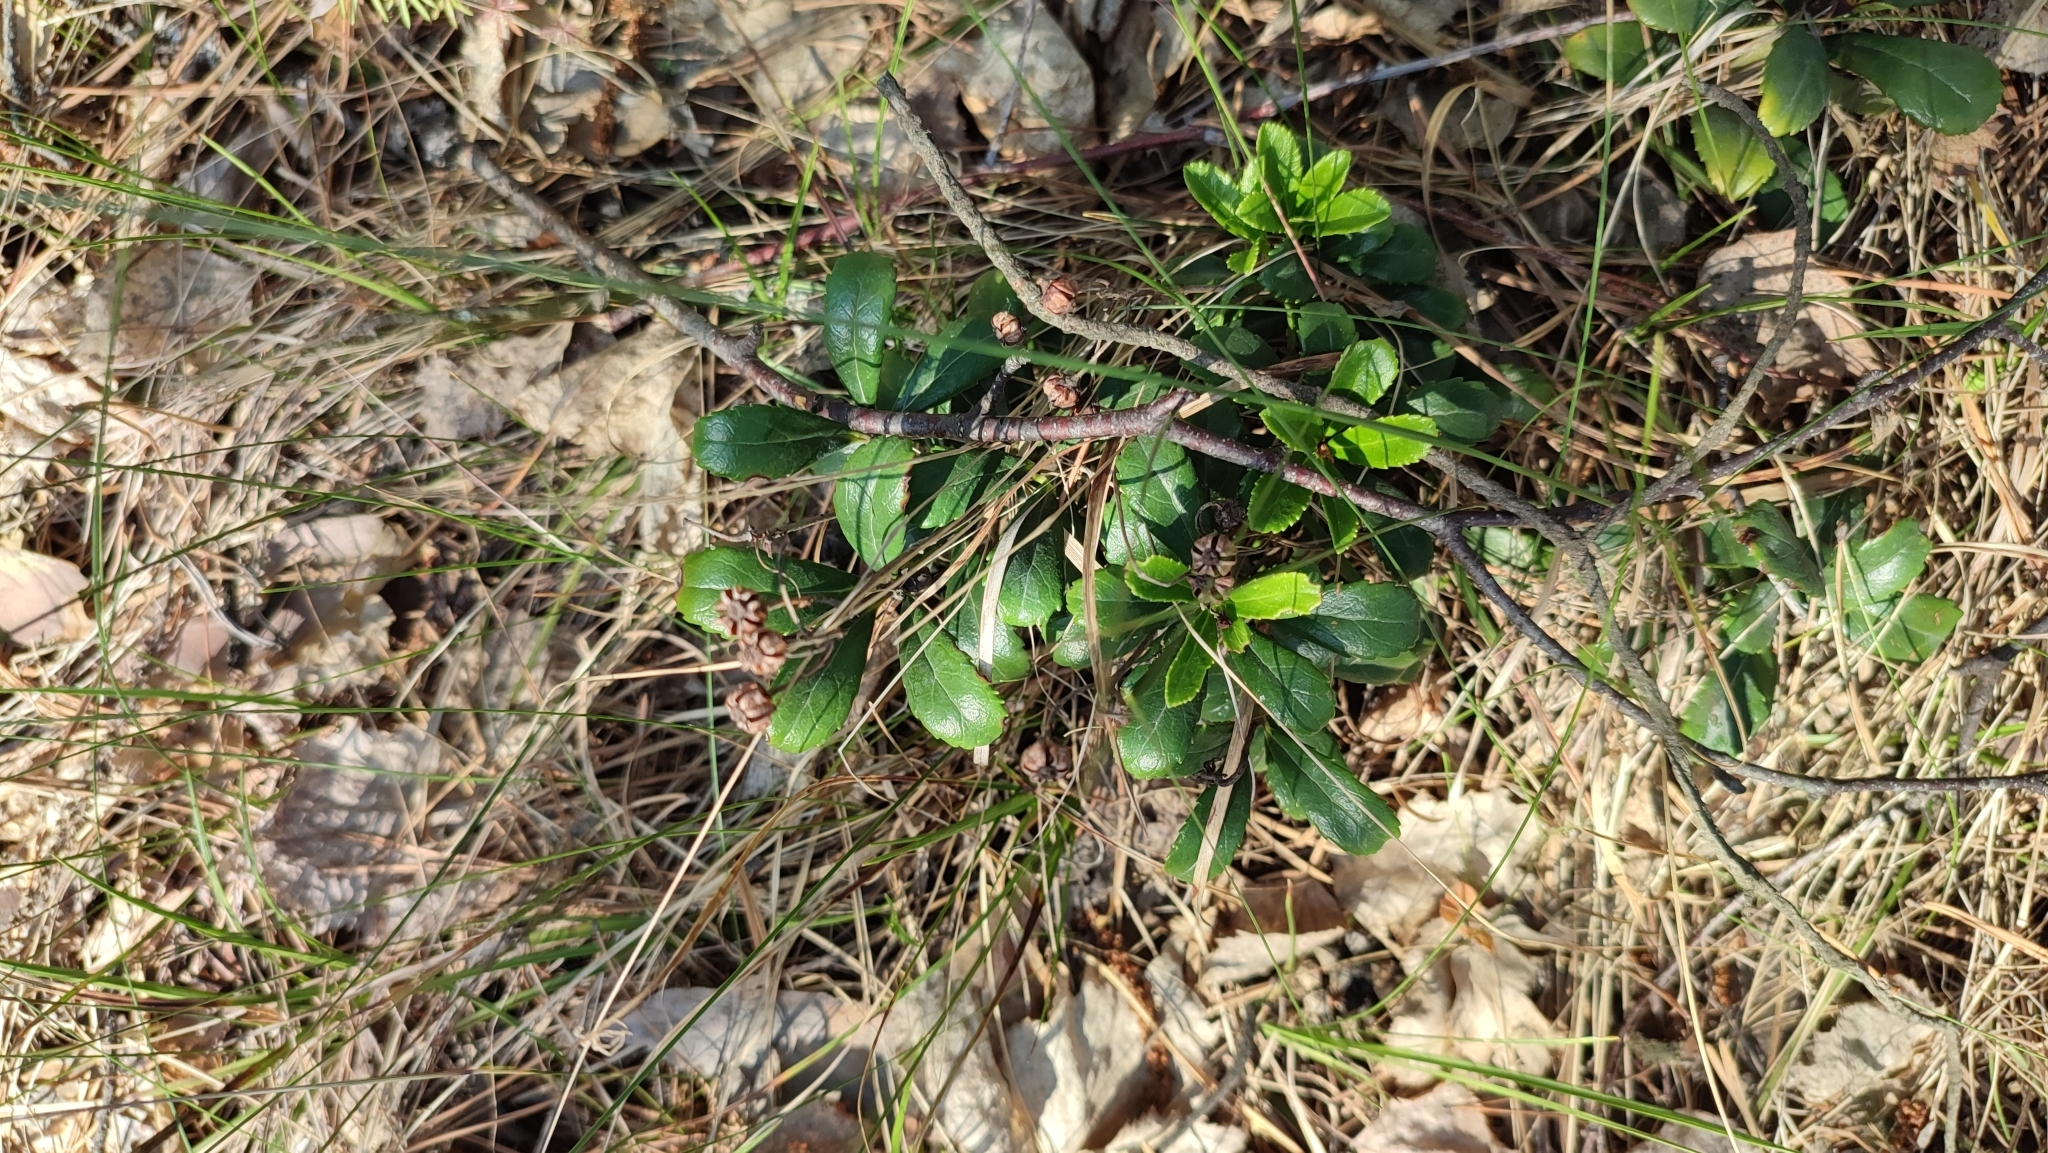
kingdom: Plantae
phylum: Tracheophyta
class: Magnoliopsida
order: Ericales
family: Ericaceae
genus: Chimaphila
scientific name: Chimaphila umbellata
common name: Pipsissewa
